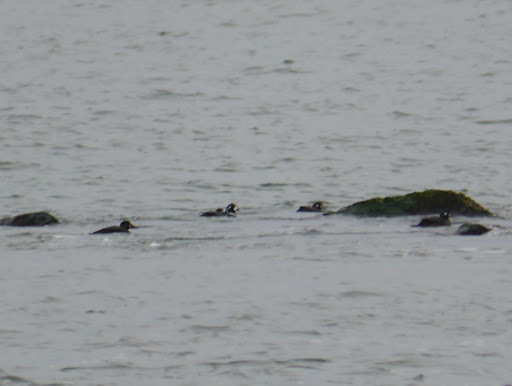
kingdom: Animalia
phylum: Chordata
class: Aves
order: Anseriformes
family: Anatidae
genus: Melanitta
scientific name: Melanitta perspicillata
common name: Surf scoter
